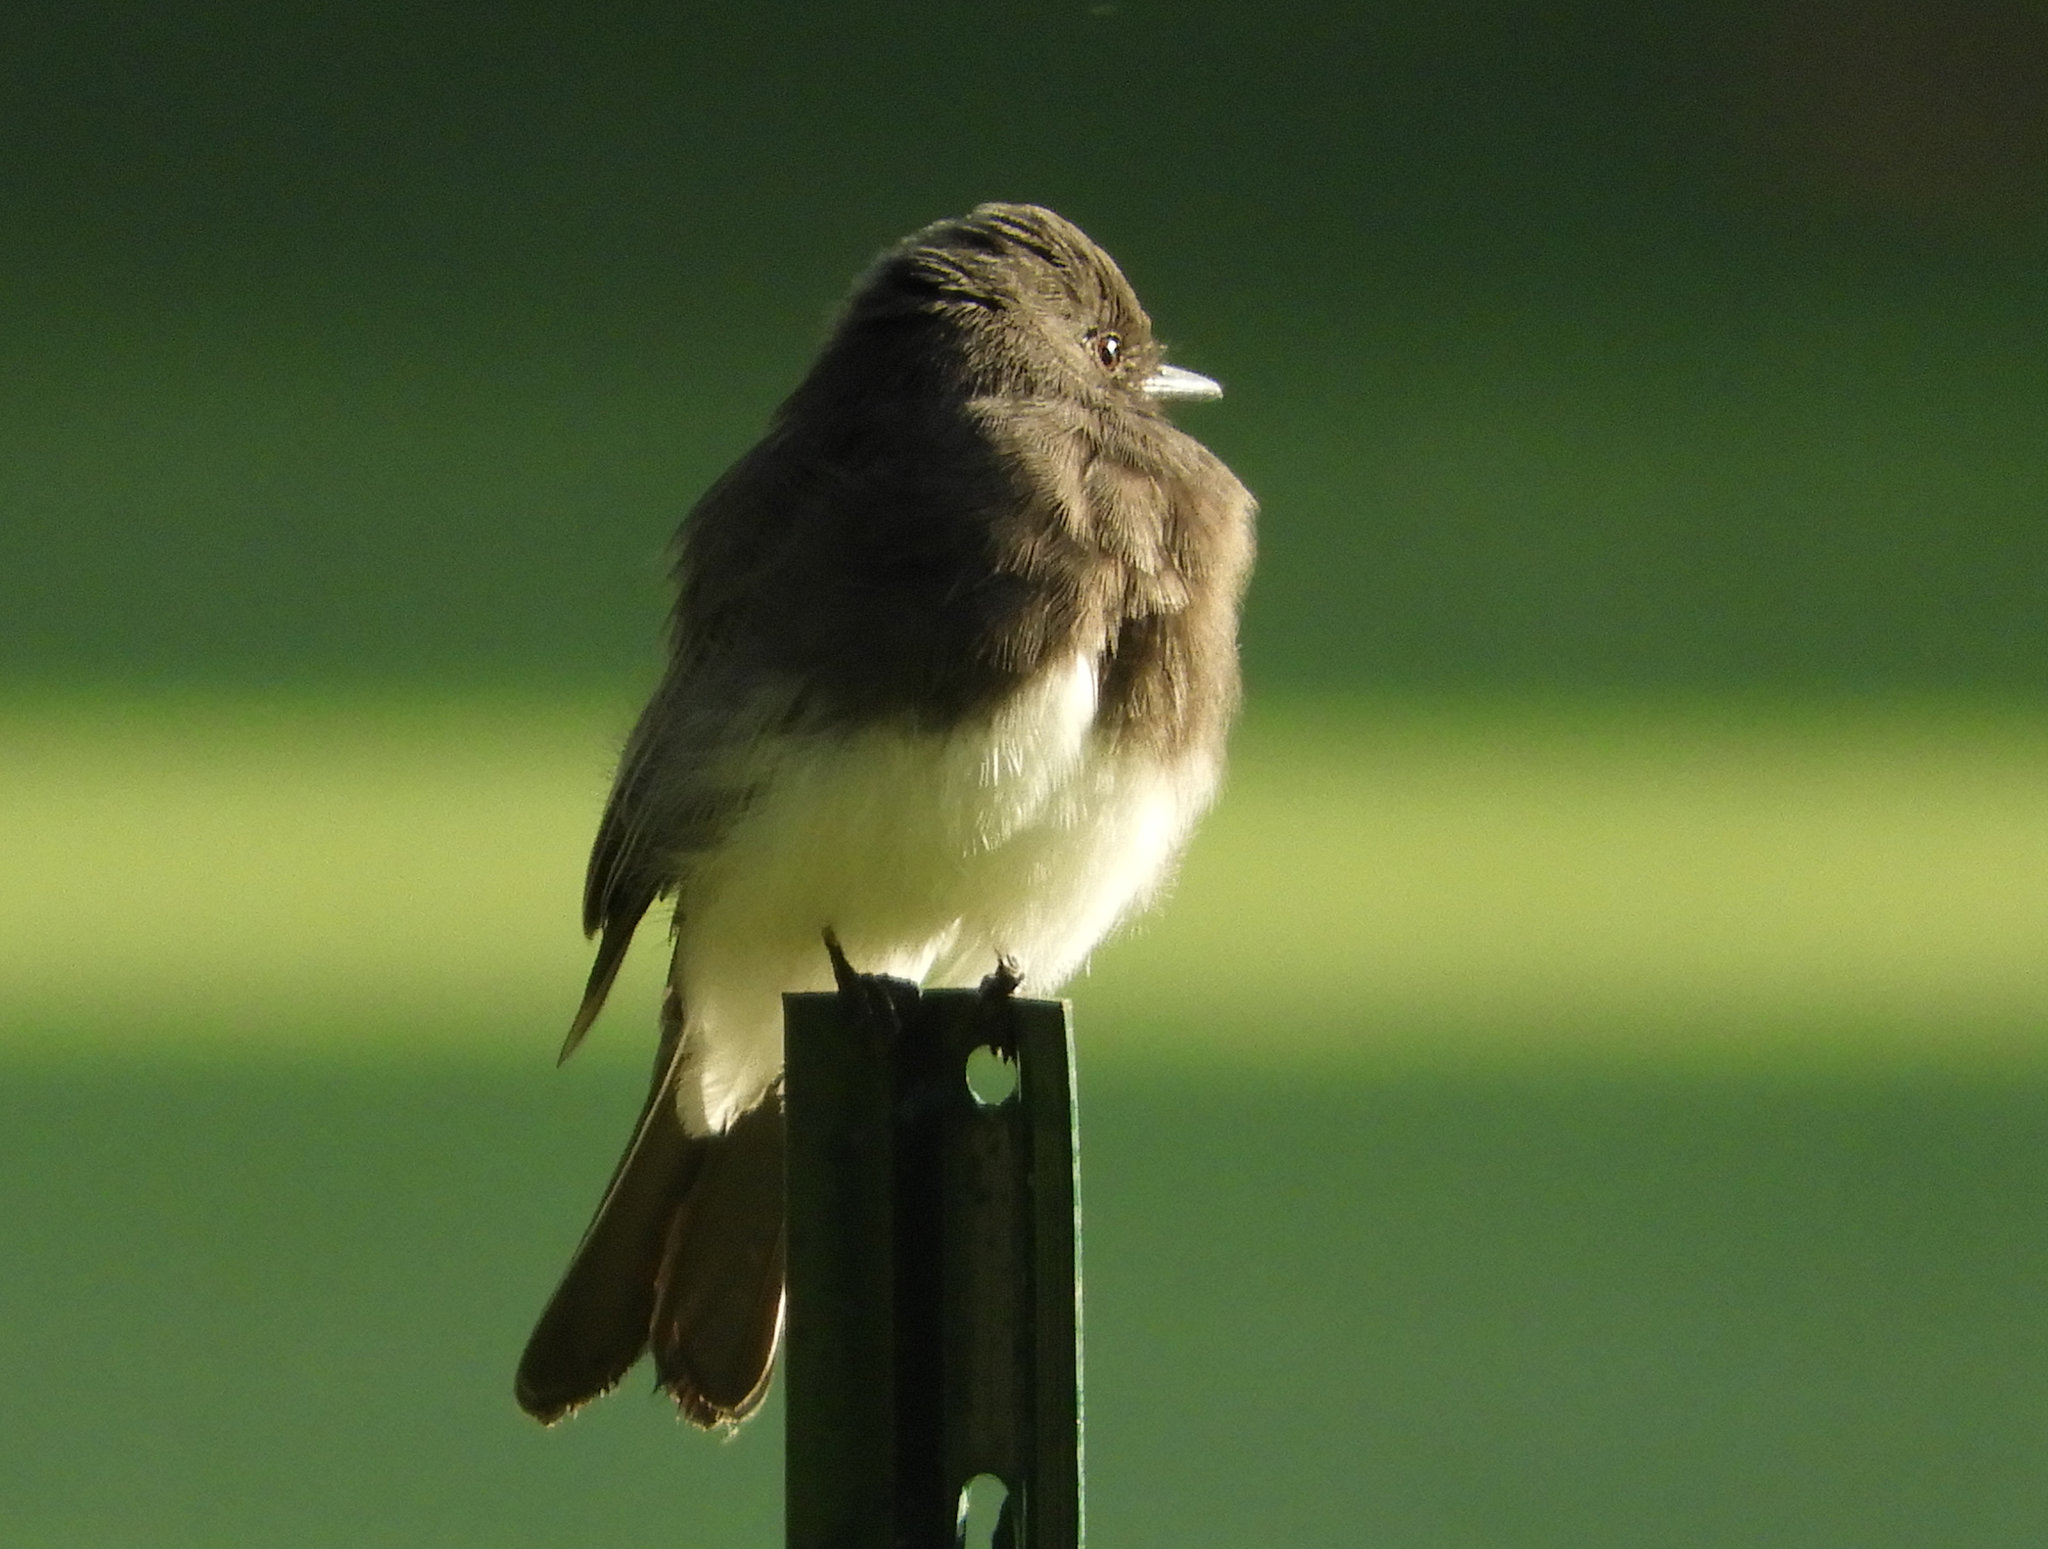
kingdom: Animalia
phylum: Chordata
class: Aves
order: Passeriformes
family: Tyrannidae
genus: Sayornis
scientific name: Sayornis nigricans
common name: Black phoebe
